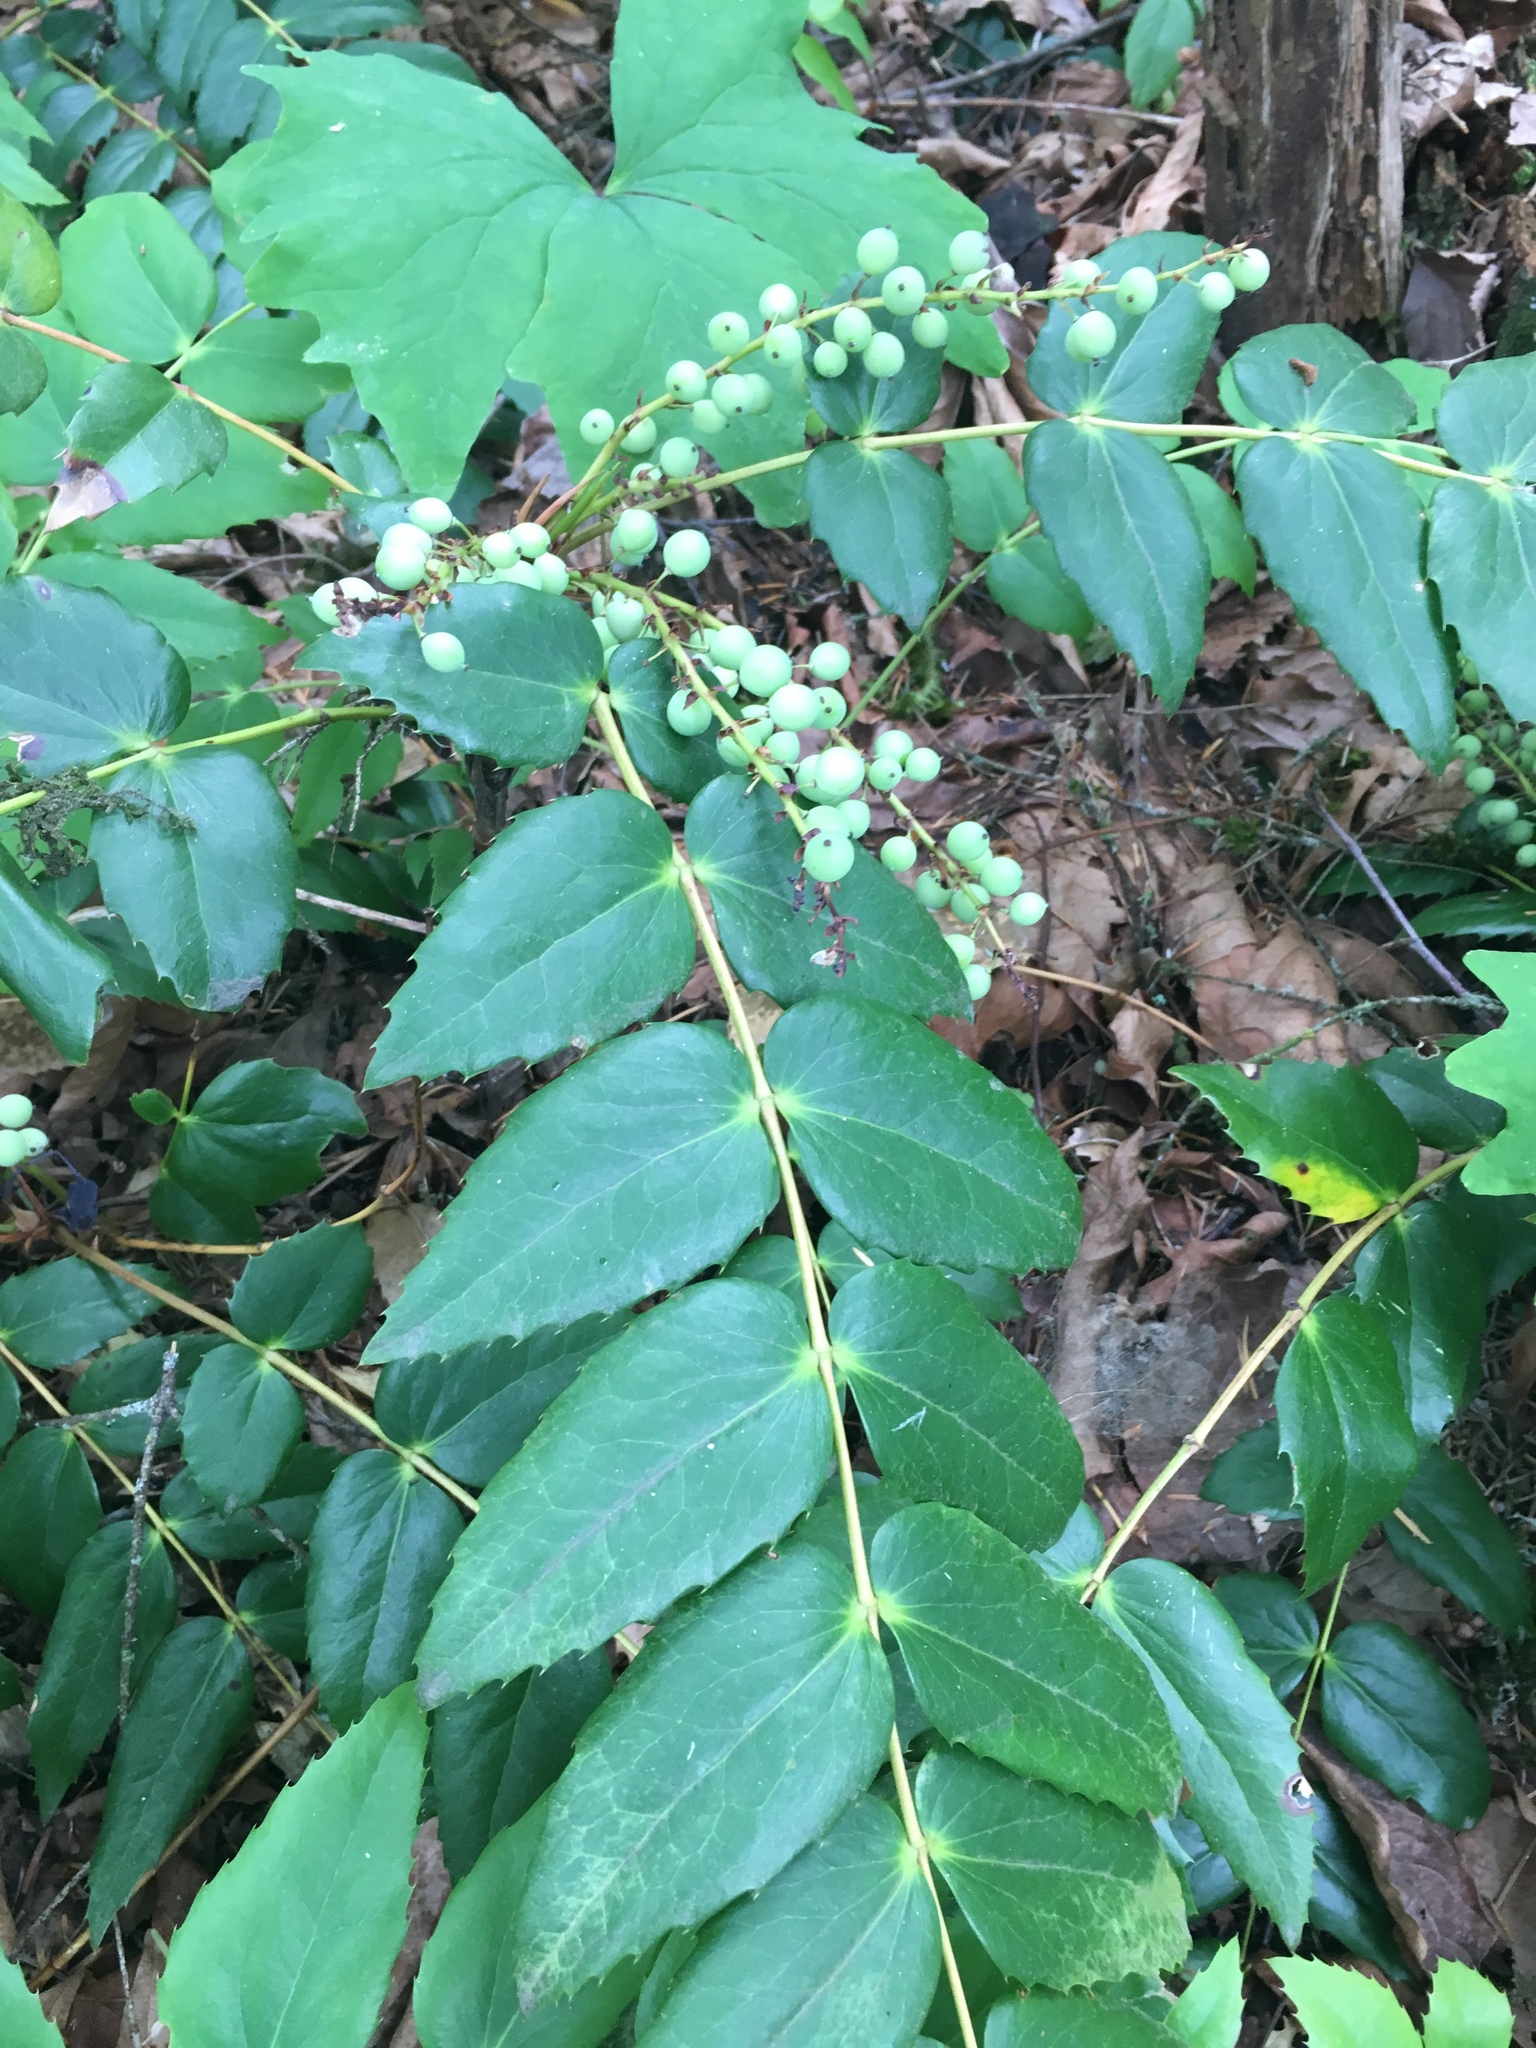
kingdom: Plantae
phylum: Tracheophyta
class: Magnoliopsida
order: Ranunculales
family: Berberidaceae
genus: Mahonia
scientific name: Mahonia nervosa
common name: Cascade oregon-grape
